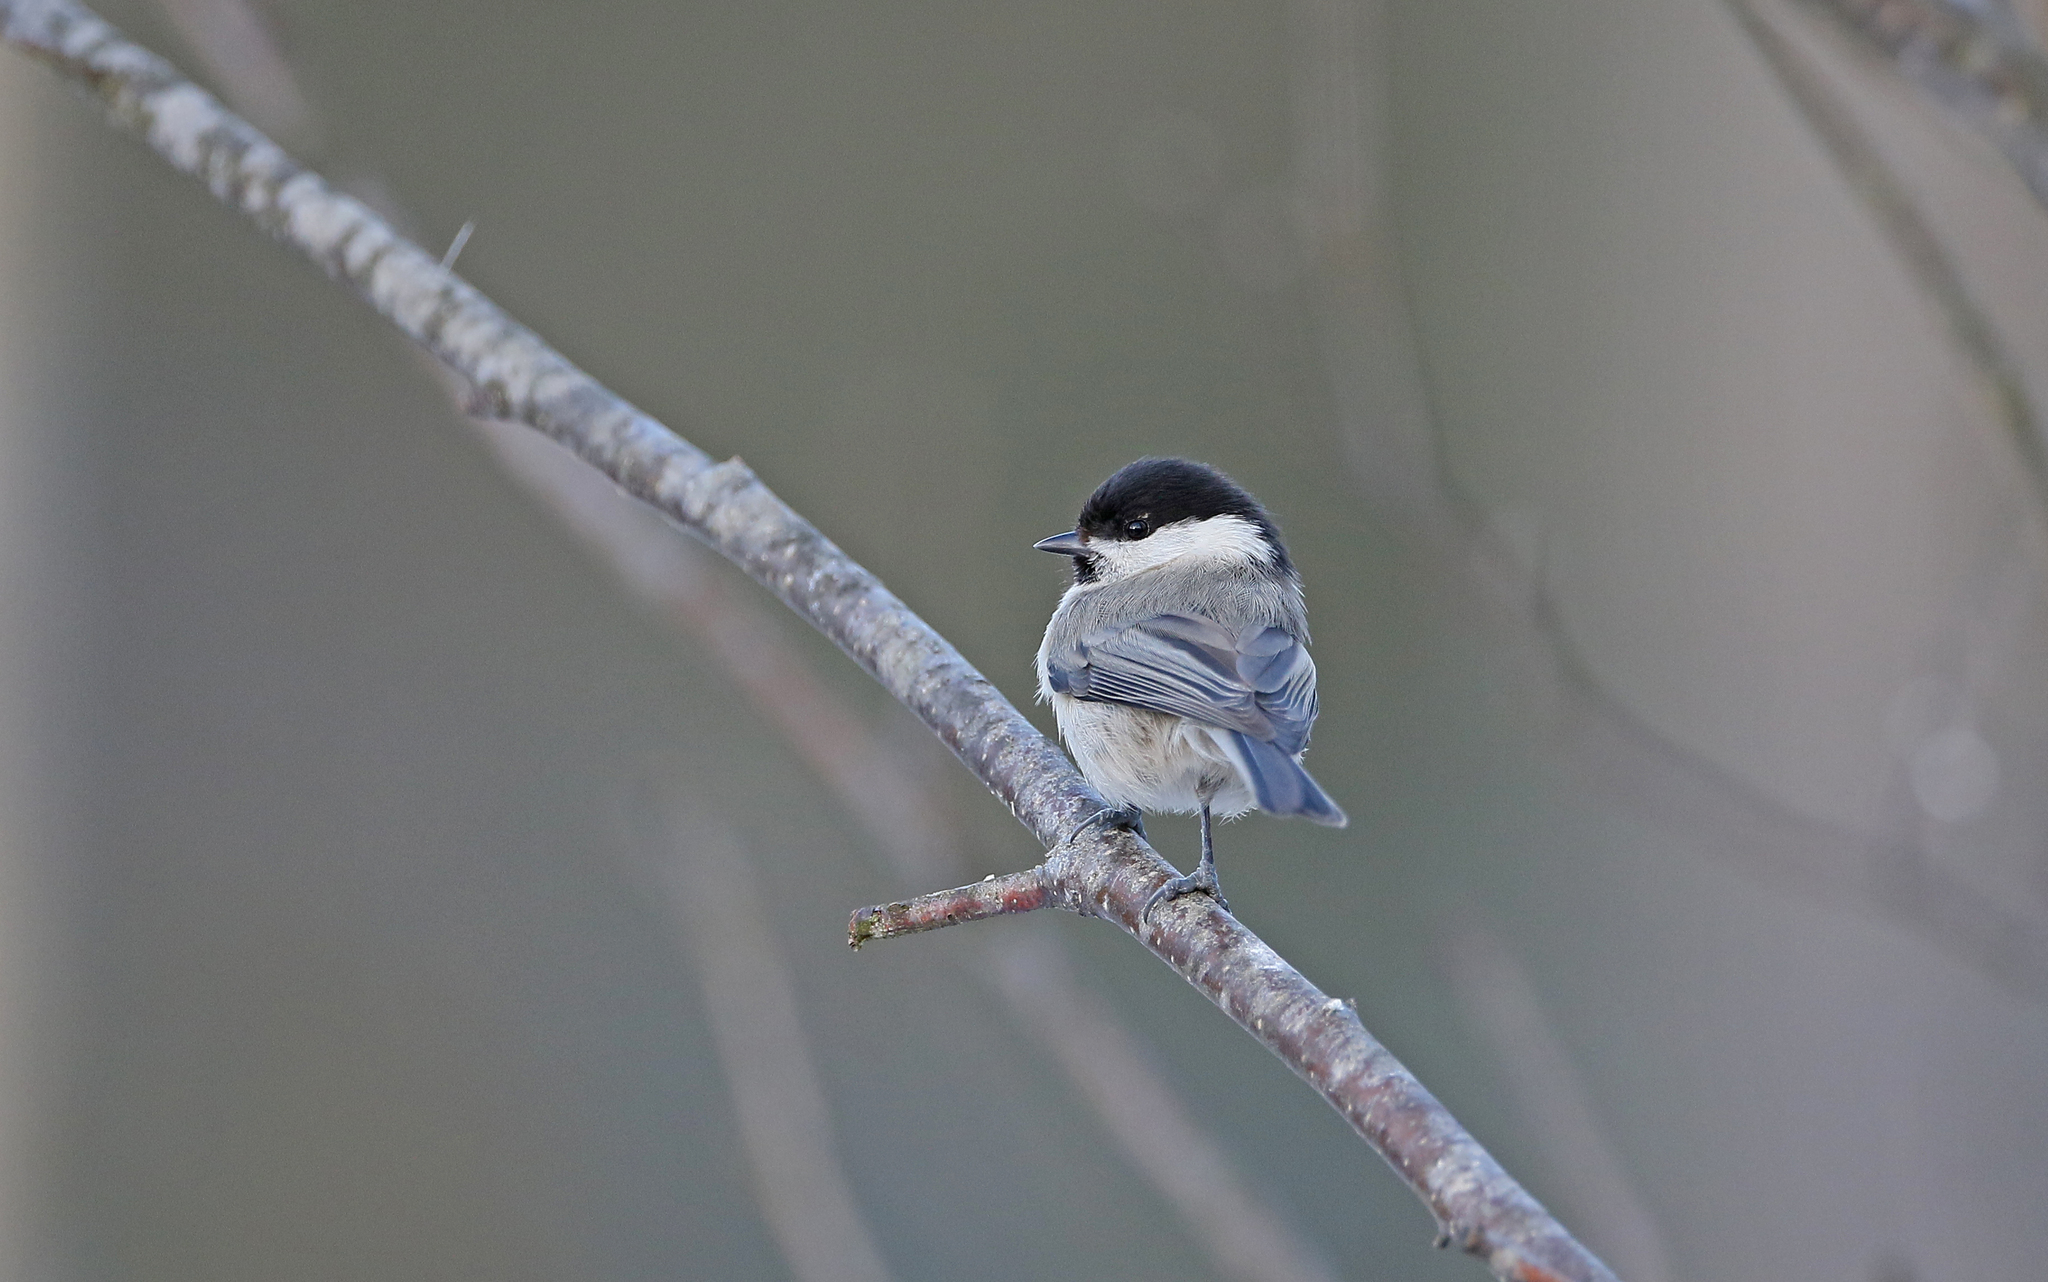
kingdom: Animalia
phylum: Chordata
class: Aves
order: Passeriformes
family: Paridae
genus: Poecile
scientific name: Poecile montanus
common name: Willow tit
